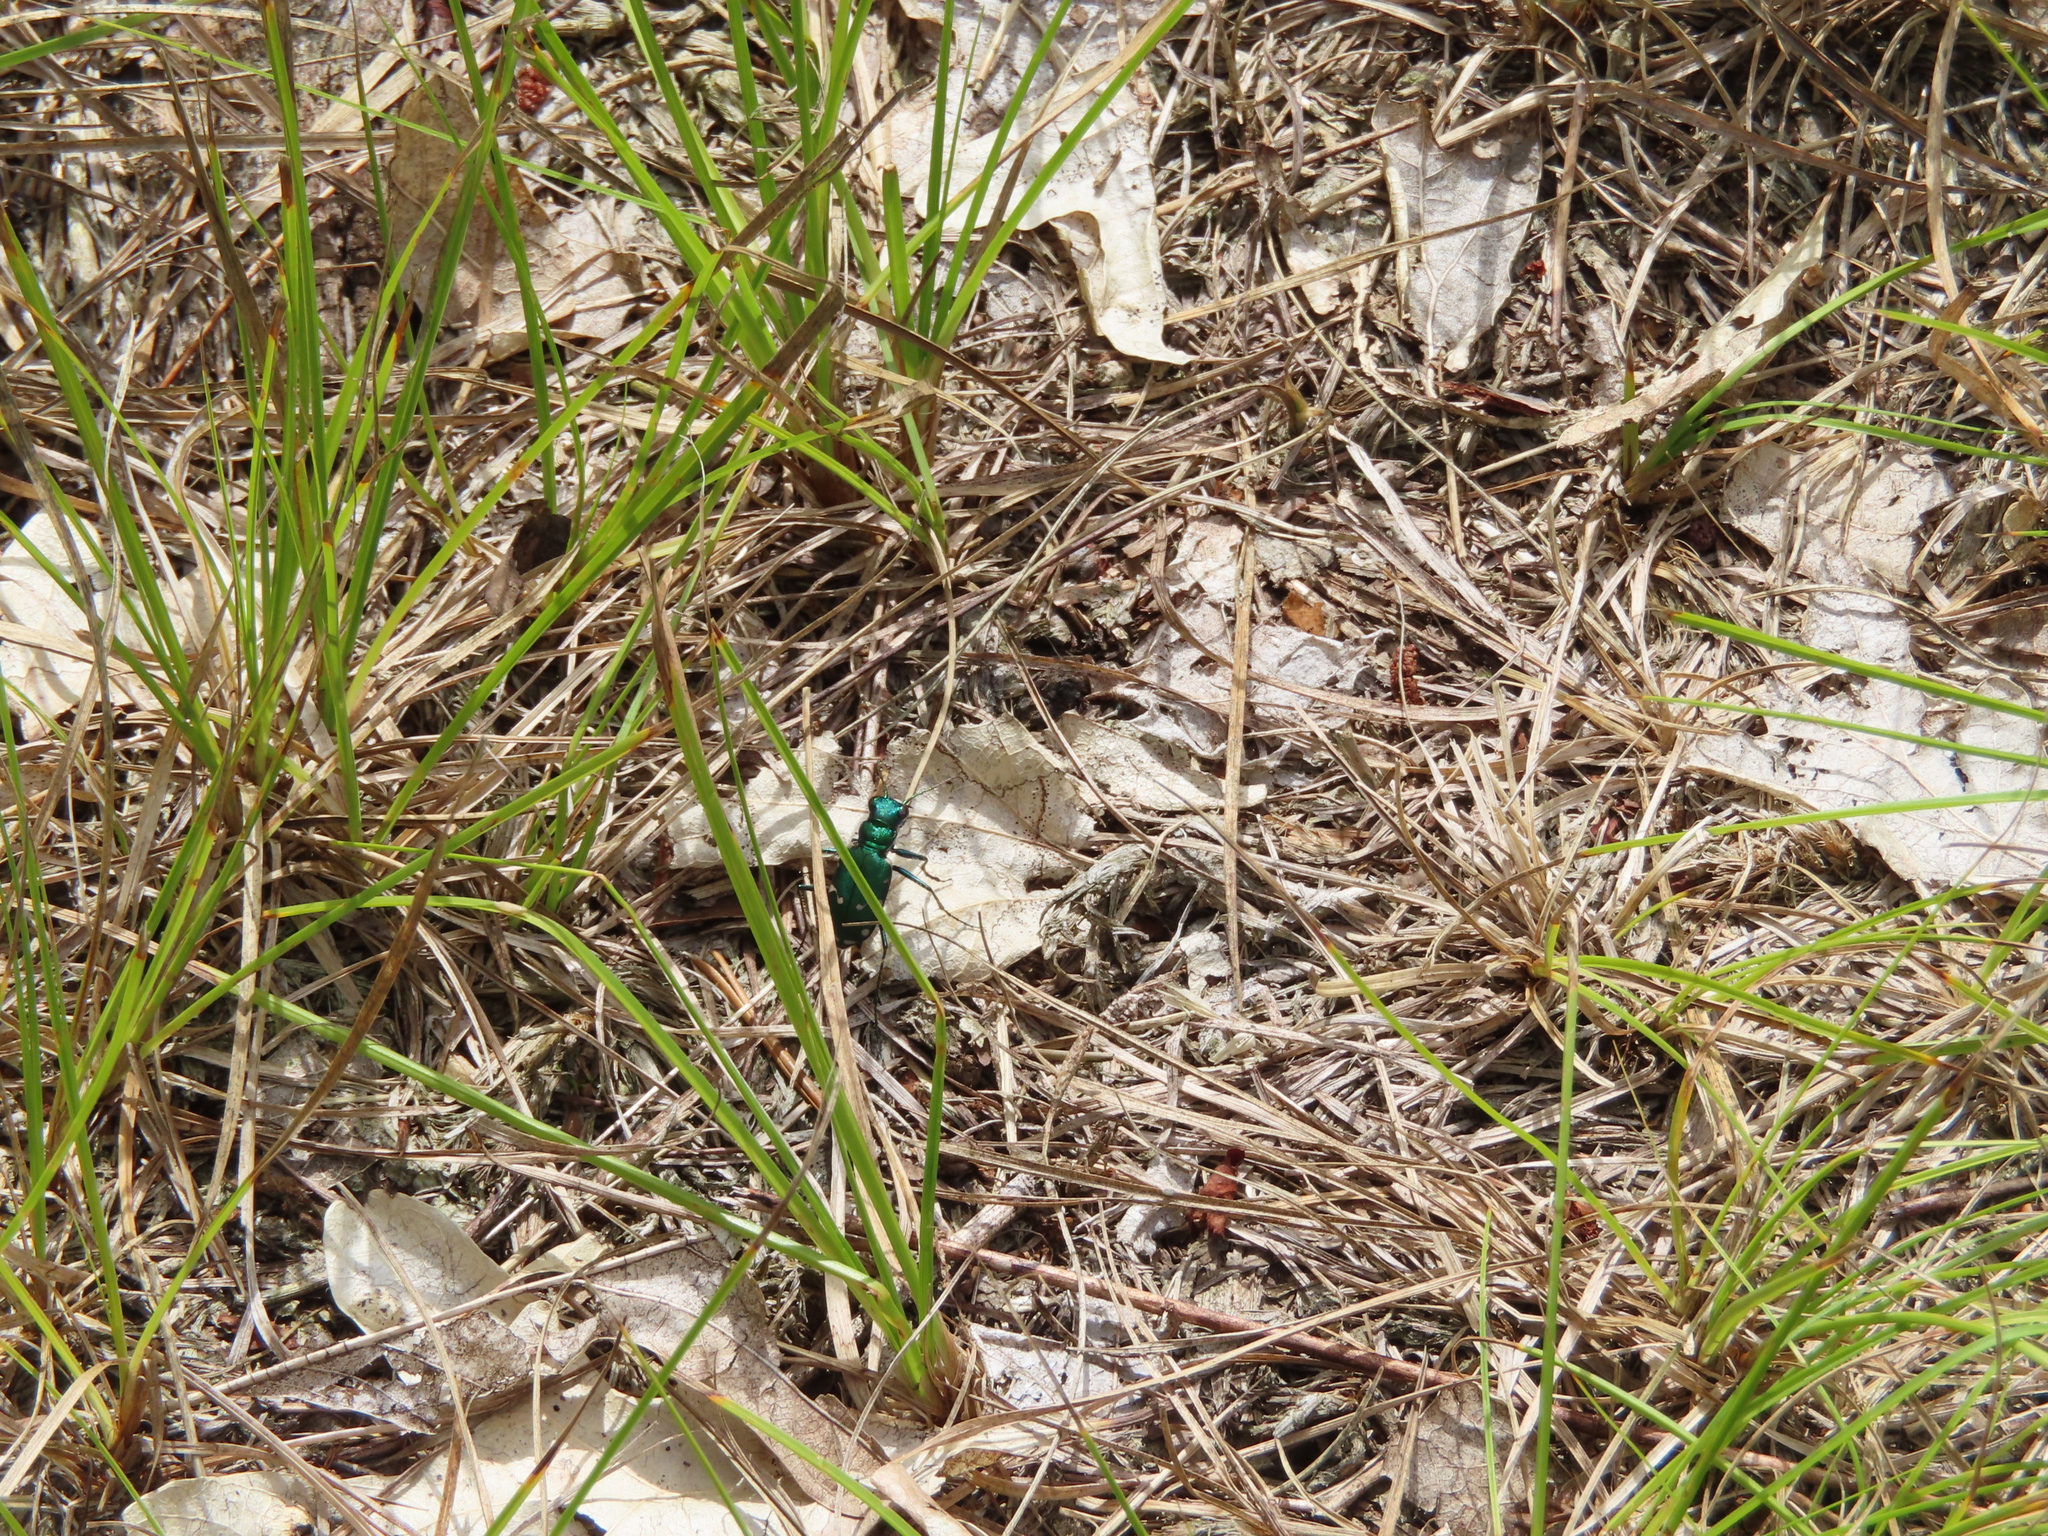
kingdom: Animalia
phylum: Arthropoda
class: Insecta
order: Coleoptera
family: Carabidae
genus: Cicindela
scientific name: Cicindela patruela
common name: Northern barrens tiger beetle
